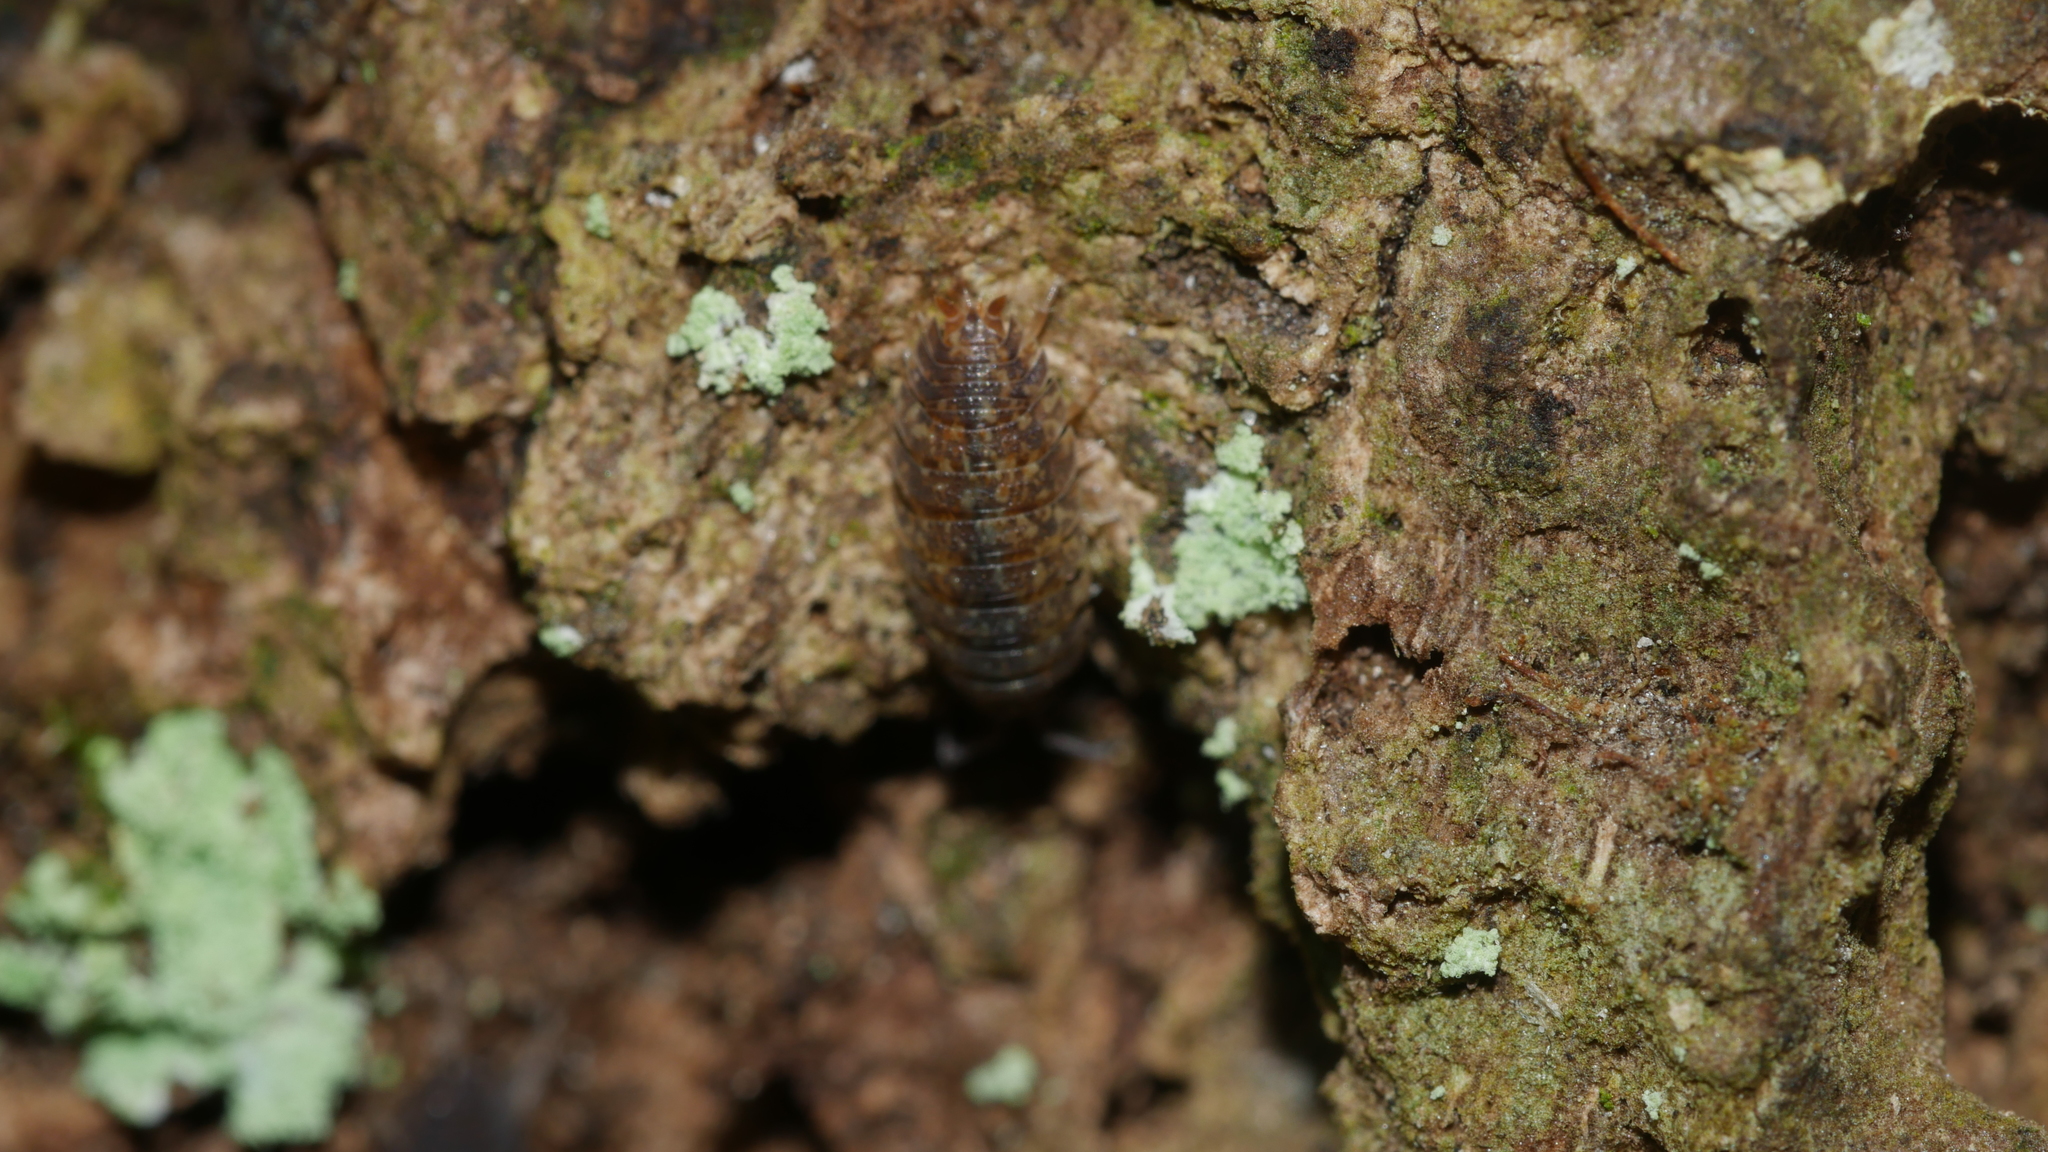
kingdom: Animalia
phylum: Arthropoda
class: Malacostraca
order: Isopoda
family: Porcellionidae
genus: Porcellio
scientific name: Porcellio scaber
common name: Common rough woodlouse
